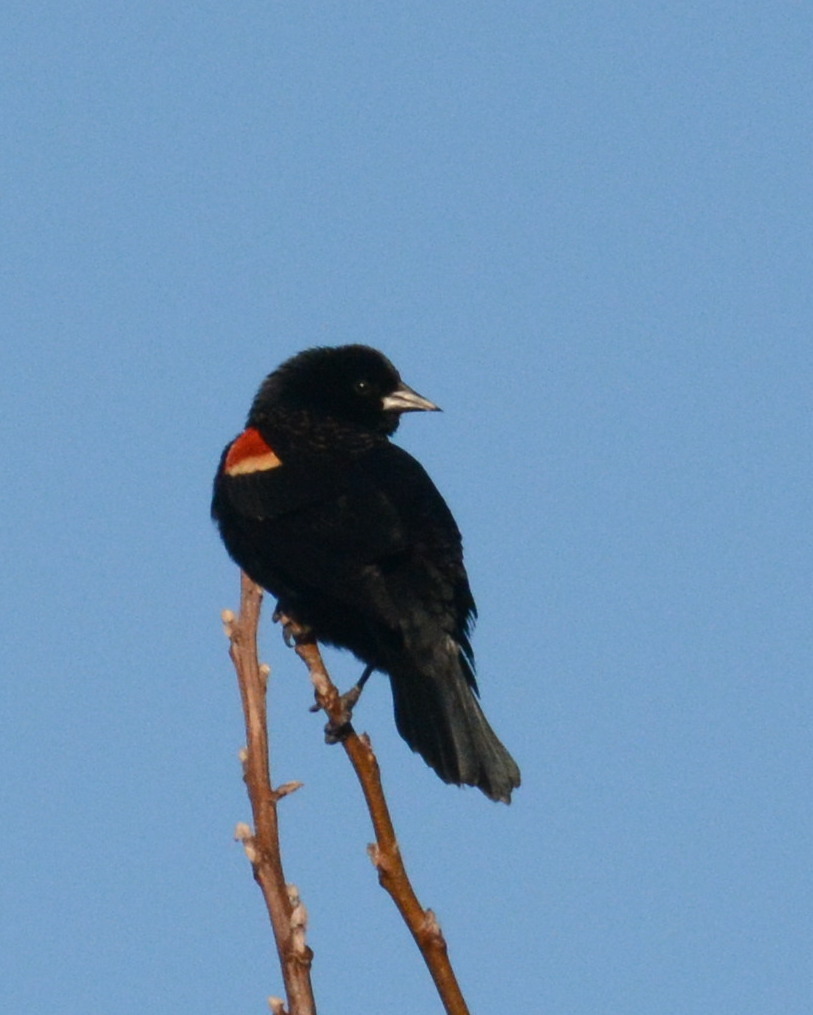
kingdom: Animalia
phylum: Chordata
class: Aves
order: Passeriformes
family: Icteridae
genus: Agelaius
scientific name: Agelaius phoeniceus
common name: Red-winged blackbird
